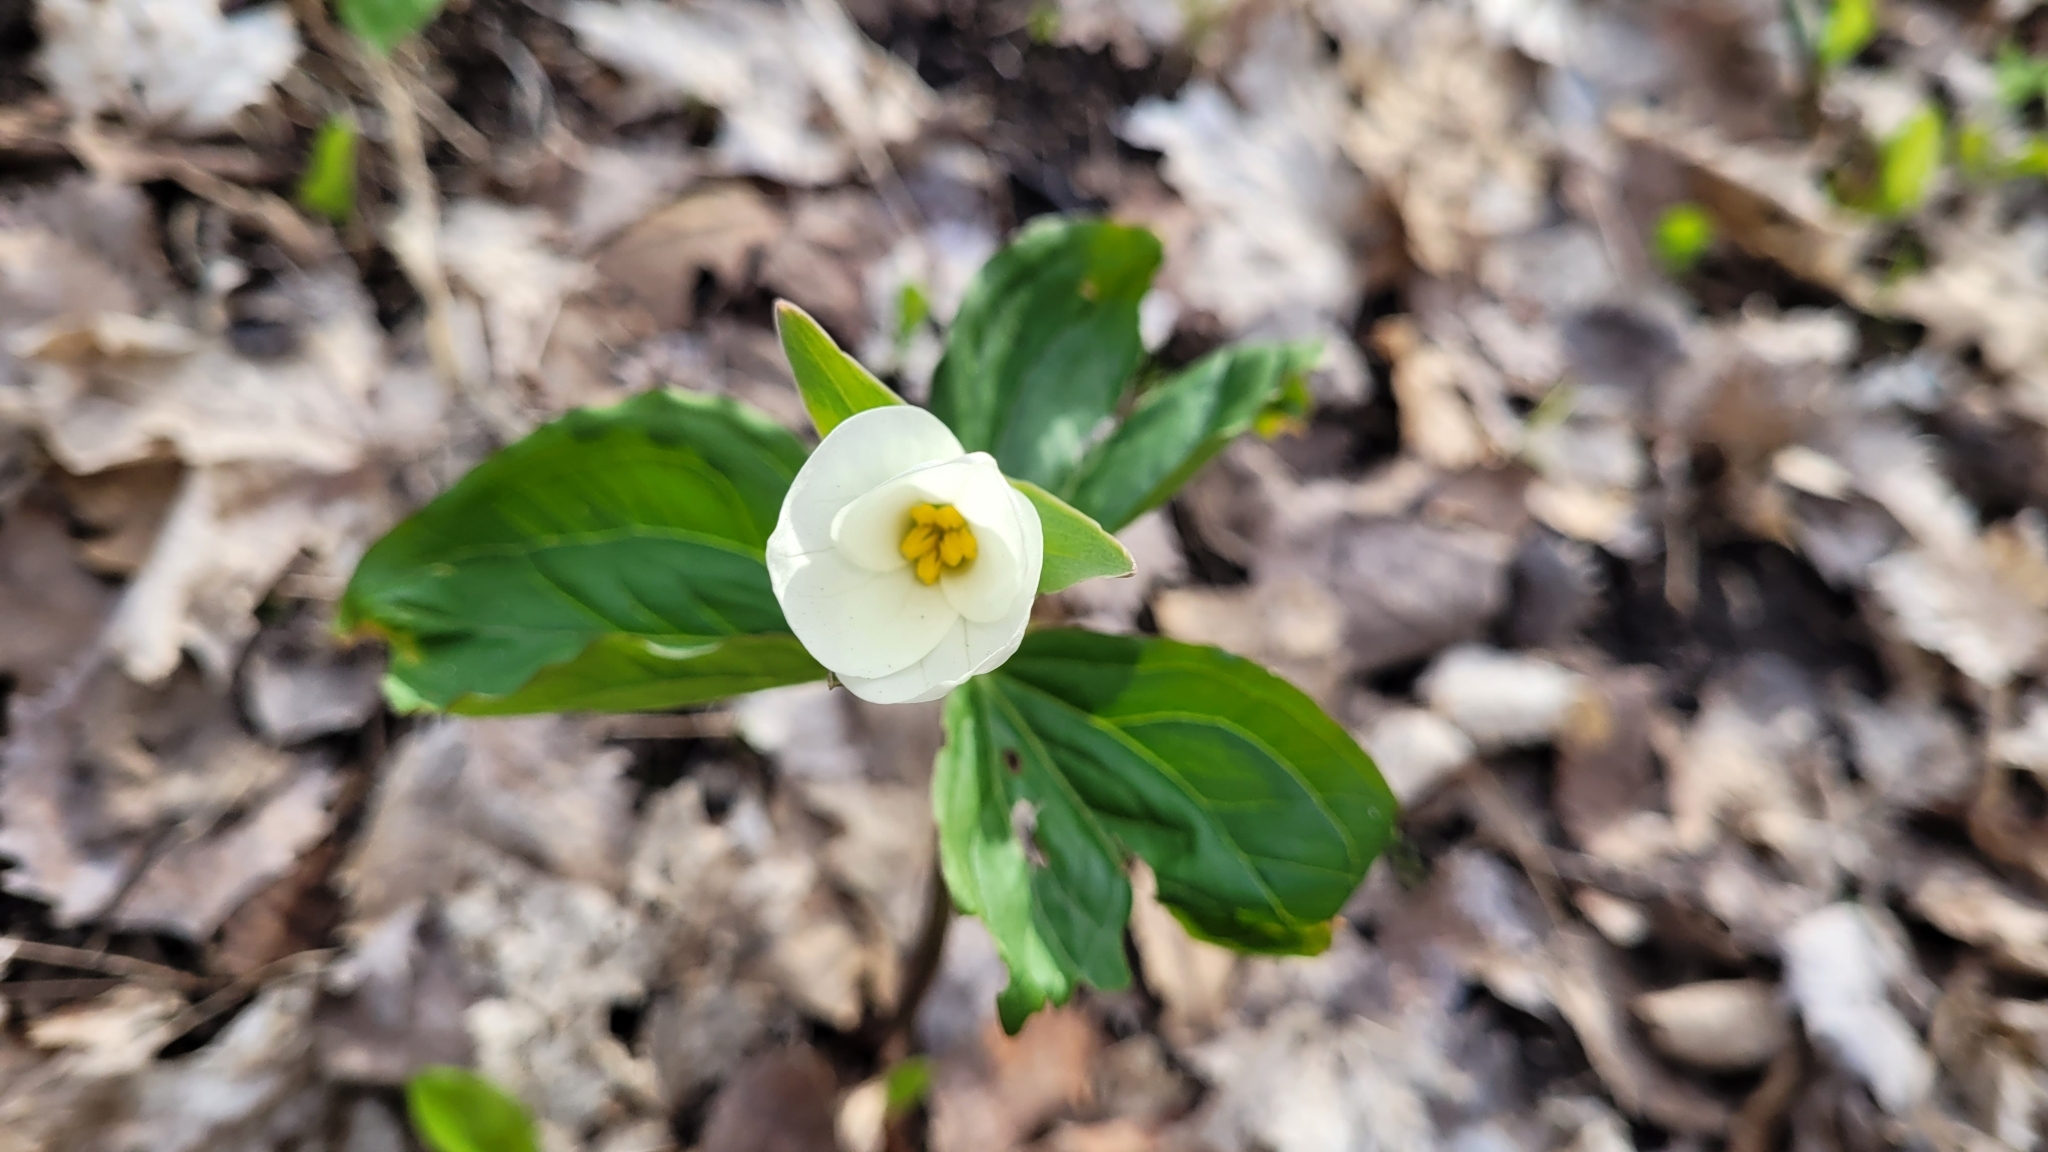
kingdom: Plantae
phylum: Tracheophyta
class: Liliopsida
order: Liliales
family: Melanthiaceae
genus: Trillium
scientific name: Trillium grandiflorum
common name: Great white trillium
